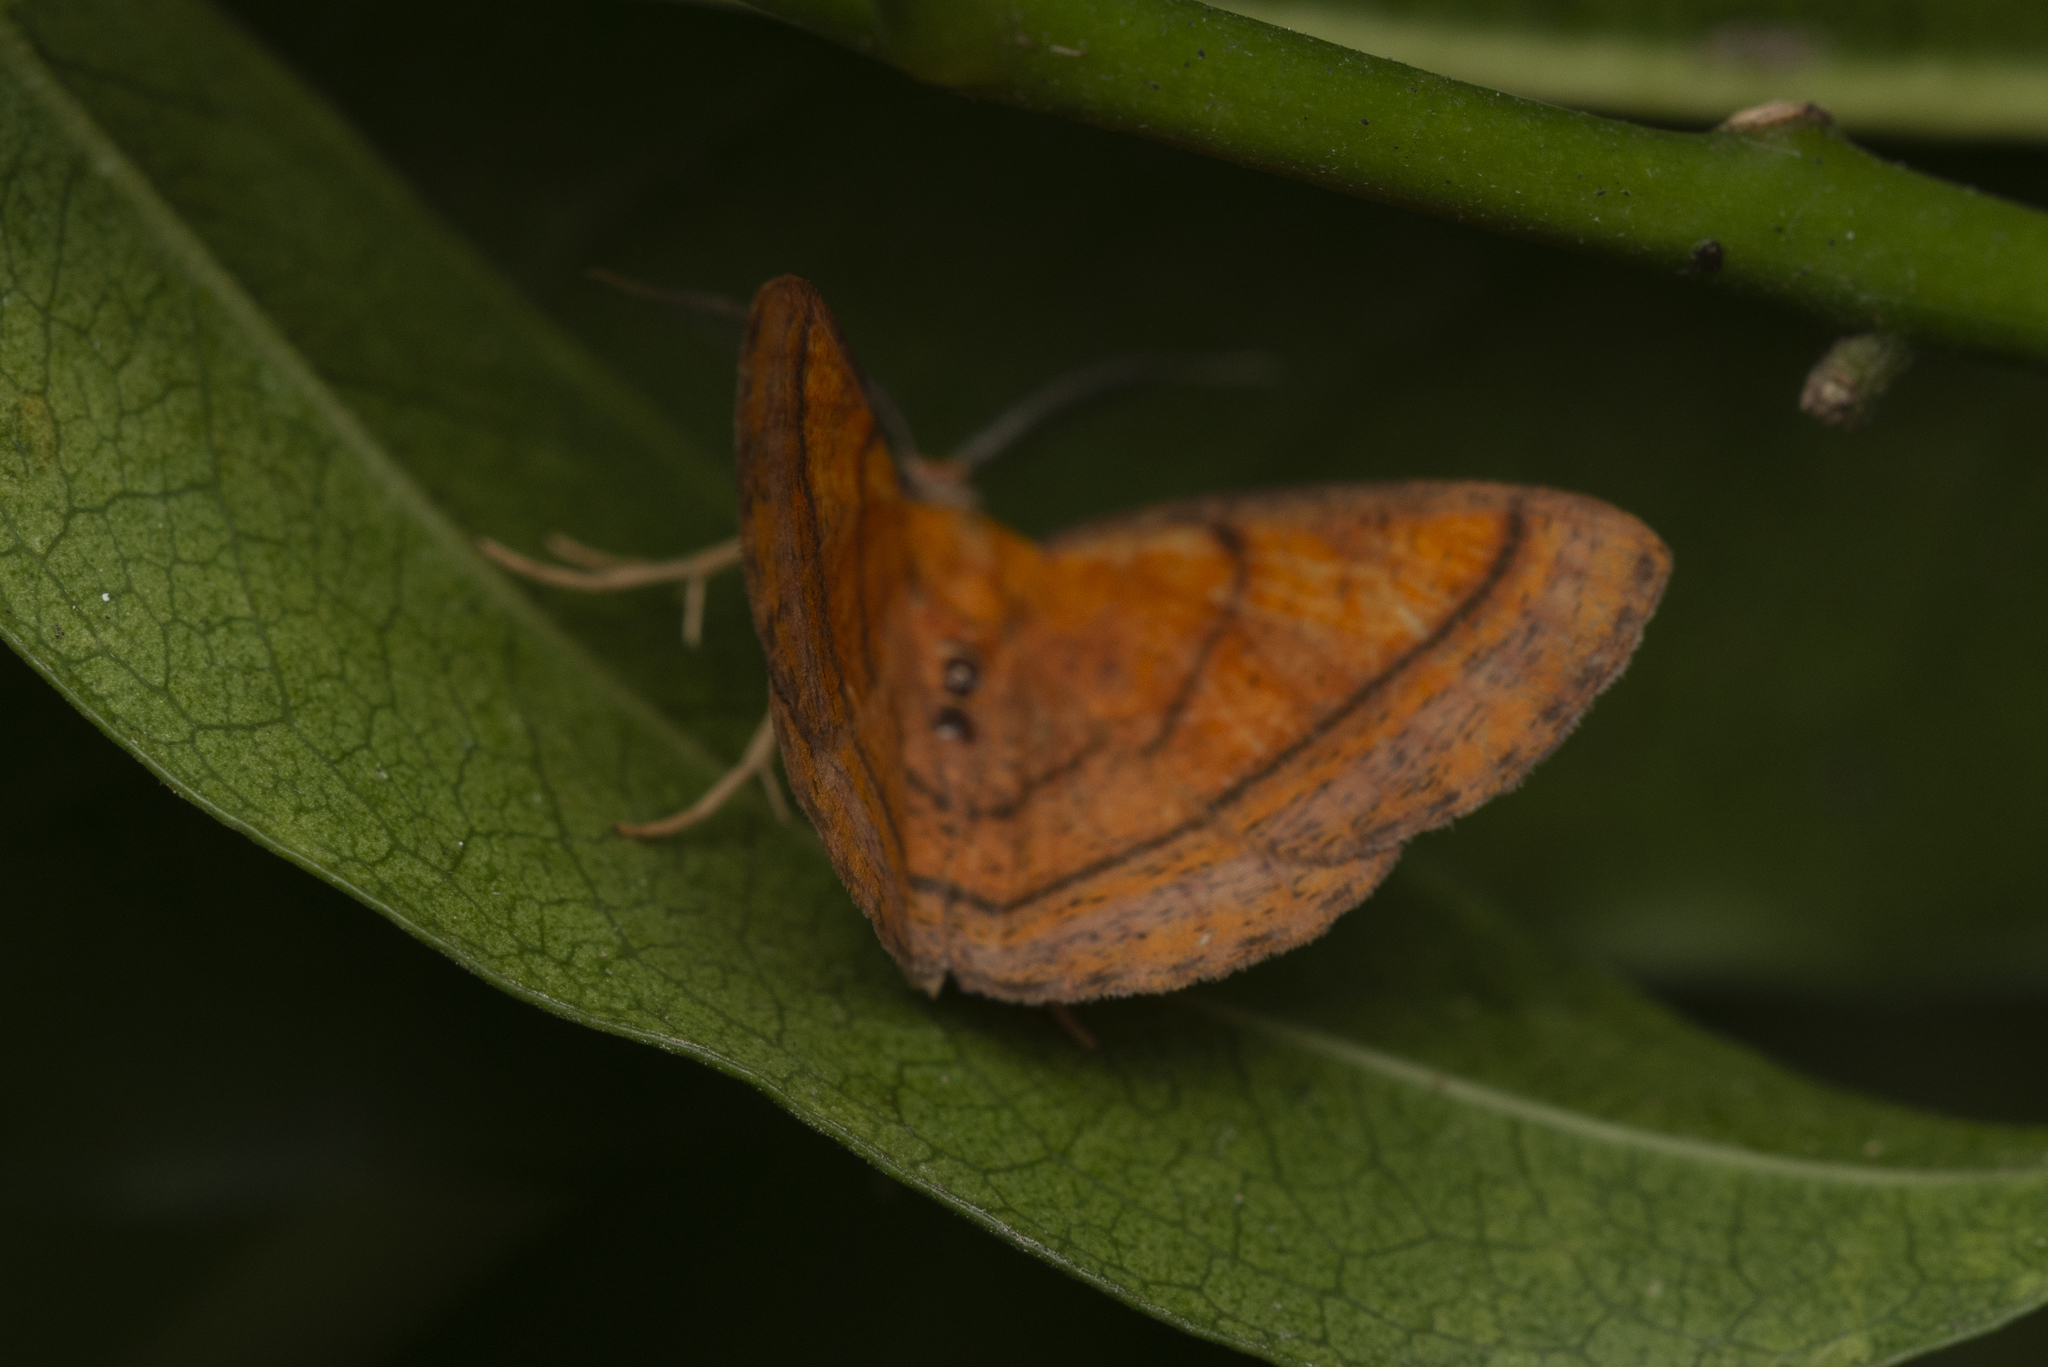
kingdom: Animalia
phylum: Arthropoda
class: Insecta
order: Lepidoptera
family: Geometridae
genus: Scardamia
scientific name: Scardamia metallaria
